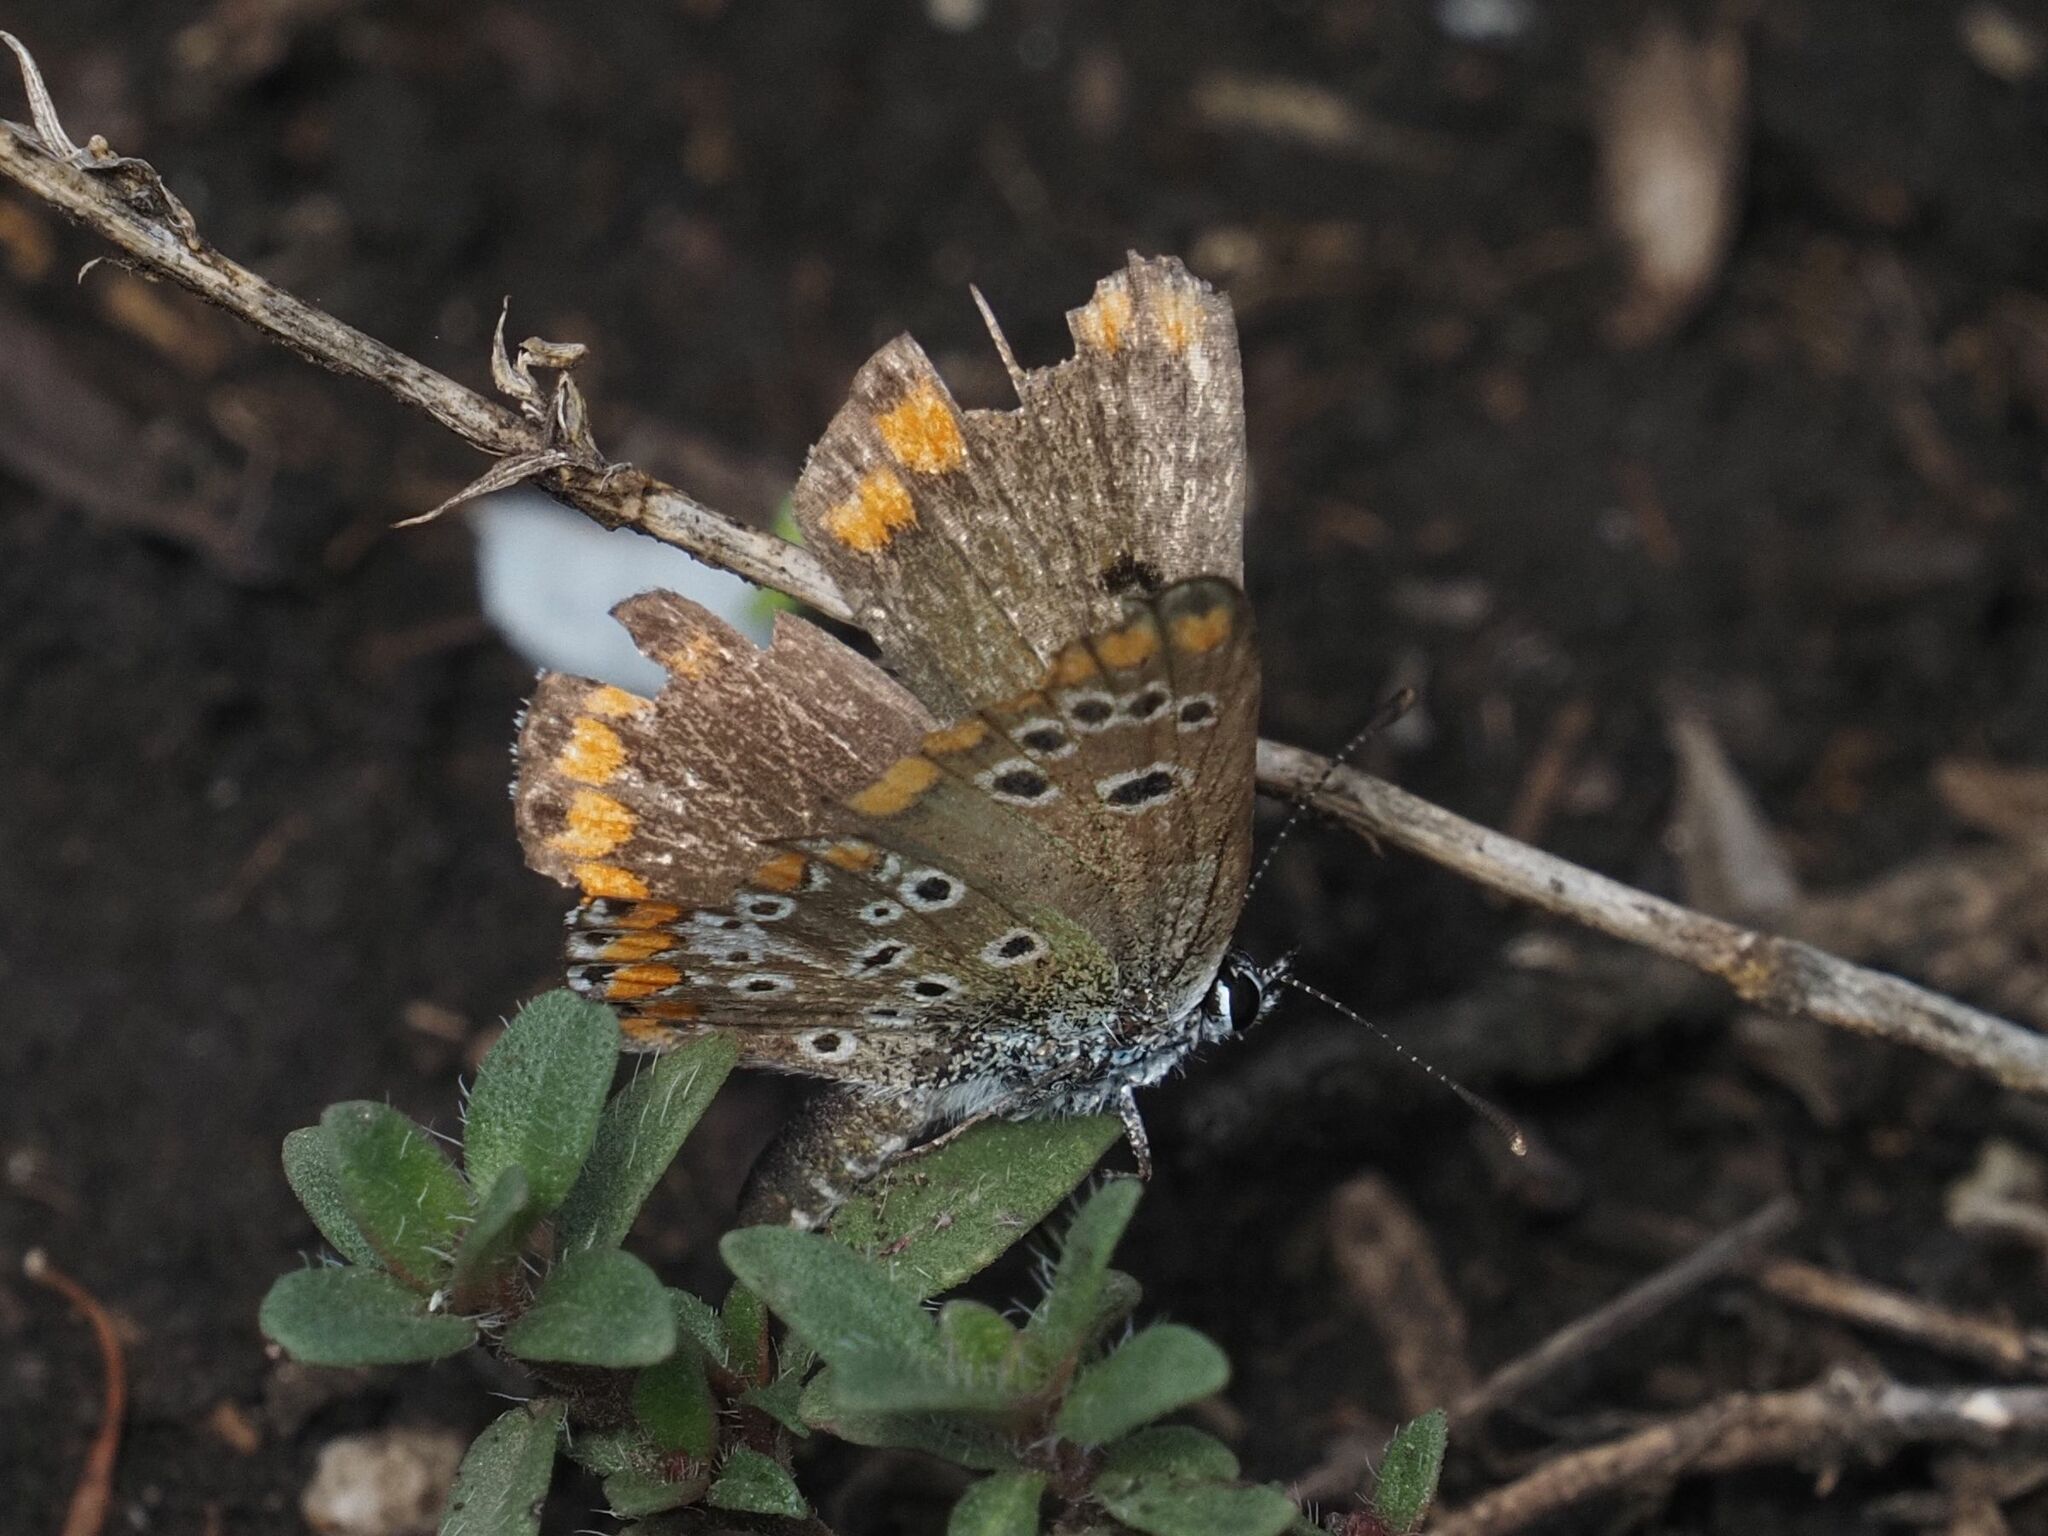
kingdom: Animalia
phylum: Arthropoda
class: Insecta
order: Lepidoptera
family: Lycaenidae
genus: Aricia
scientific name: Aricia agestis
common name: Brown argus
